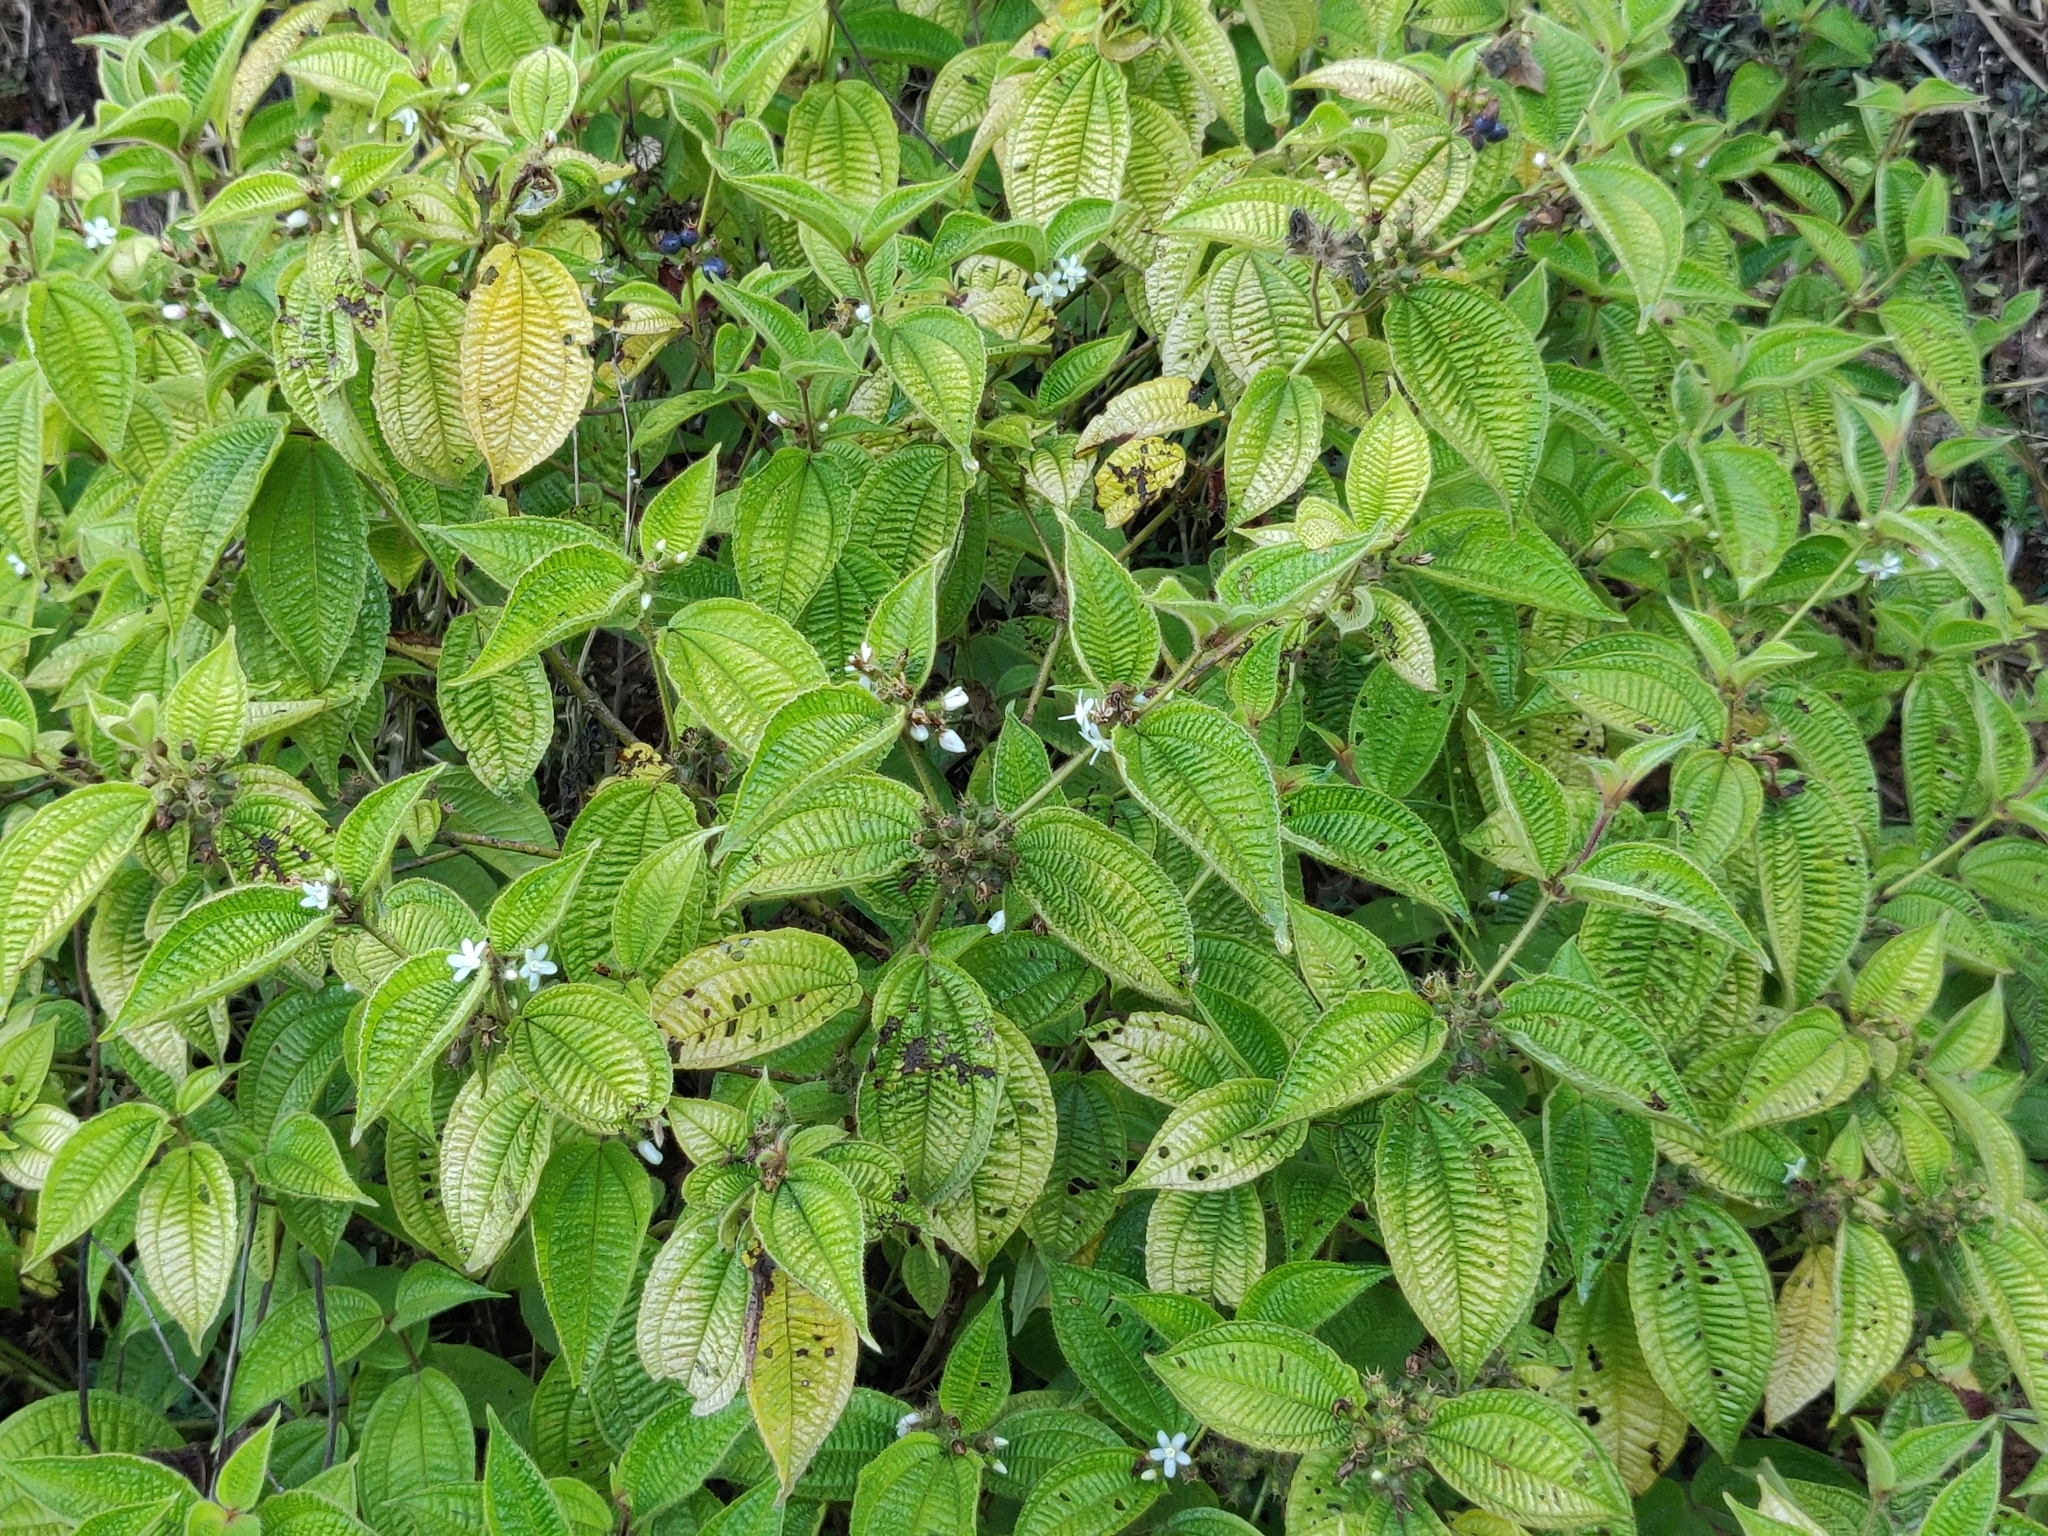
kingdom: Plantae
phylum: Tracheophyta
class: Magnoliopsida
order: Myrtales
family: Melastomataceae
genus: Miconia
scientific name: Miconia crenata
